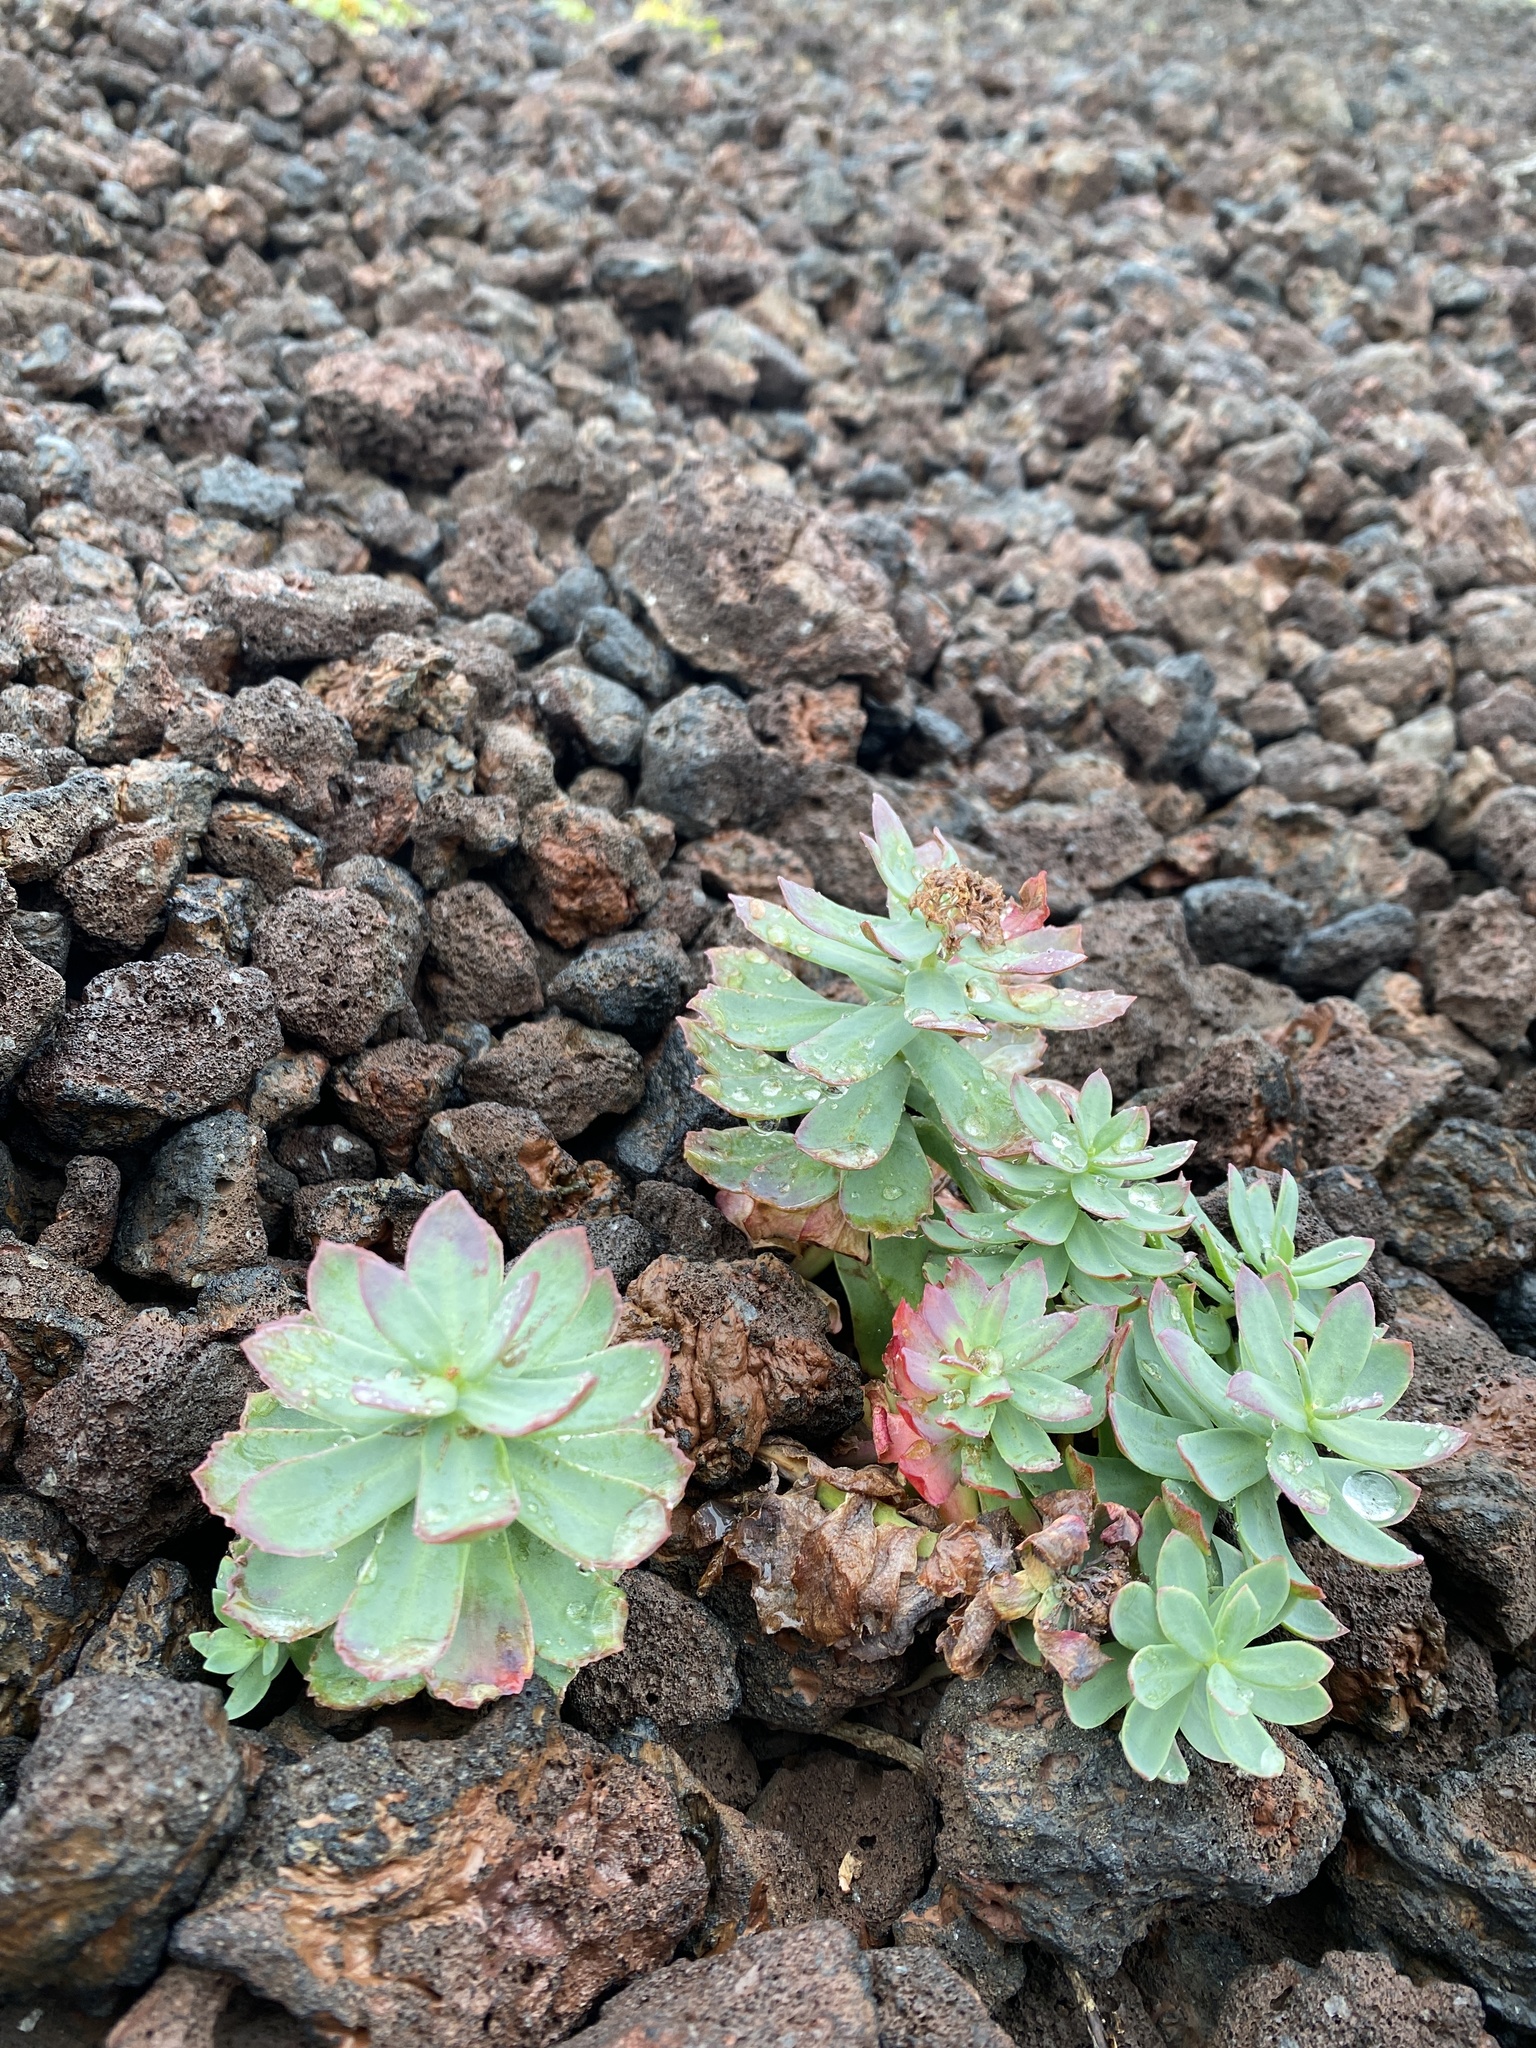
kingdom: Plantae
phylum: Tracheophyta
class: Magnoliopsida
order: Saxifragales
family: Crassulaceae
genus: Rhodiola
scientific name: Rhodiola rosea
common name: Roseroot
